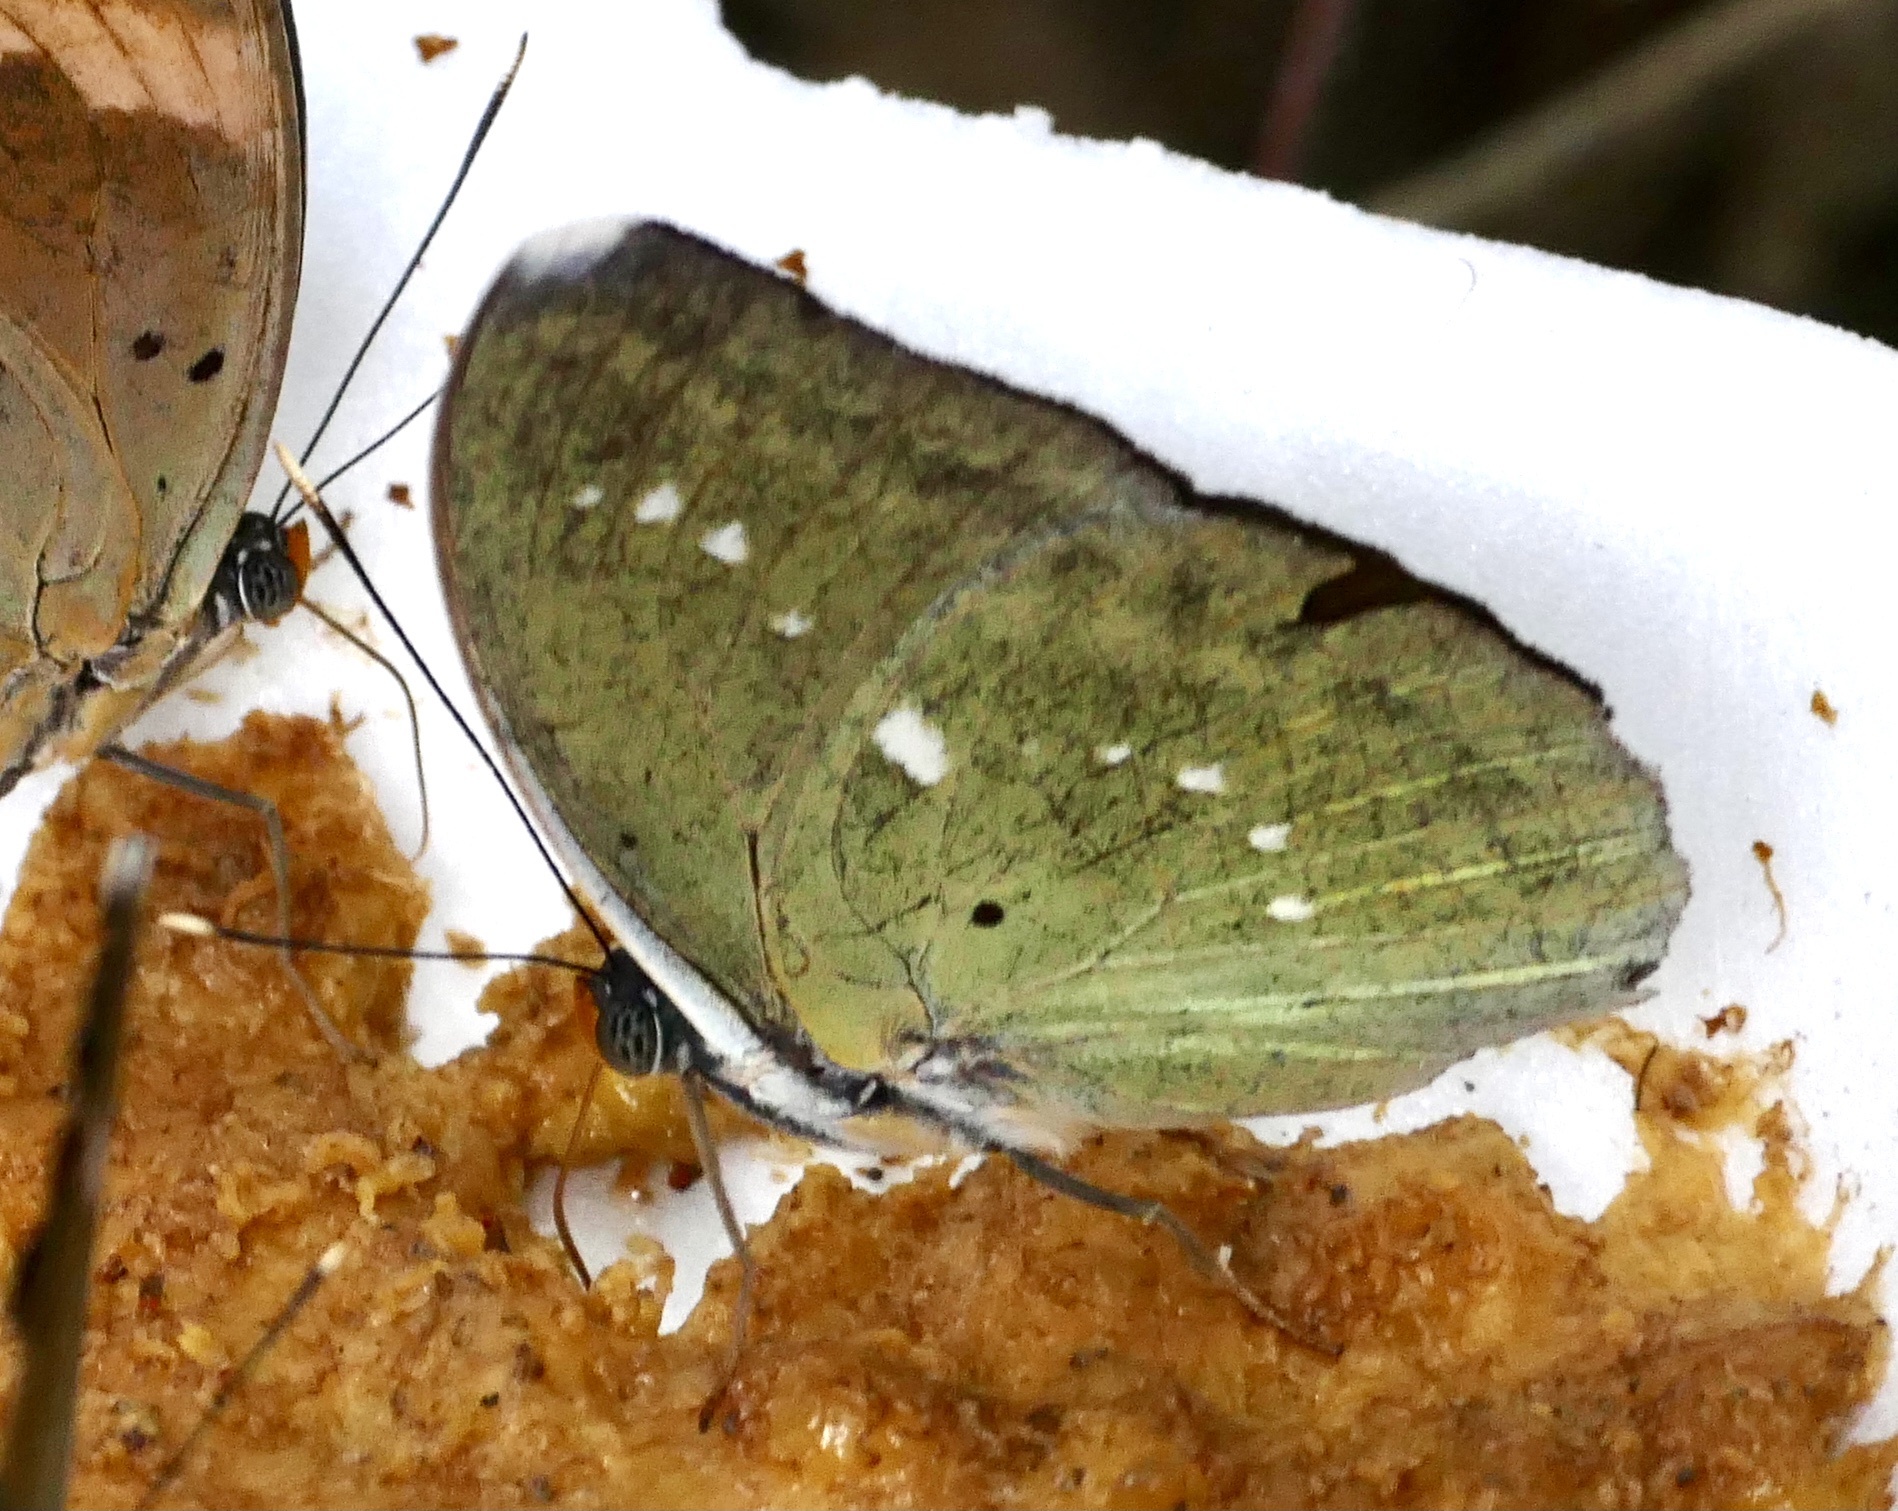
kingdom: Animalia
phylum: Arthropoda
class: Insecta
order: Lepidoptera
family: Nymphalidae
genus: Euphaedra
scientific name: Euphaedra eupalus
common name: Western blue-banded forester
